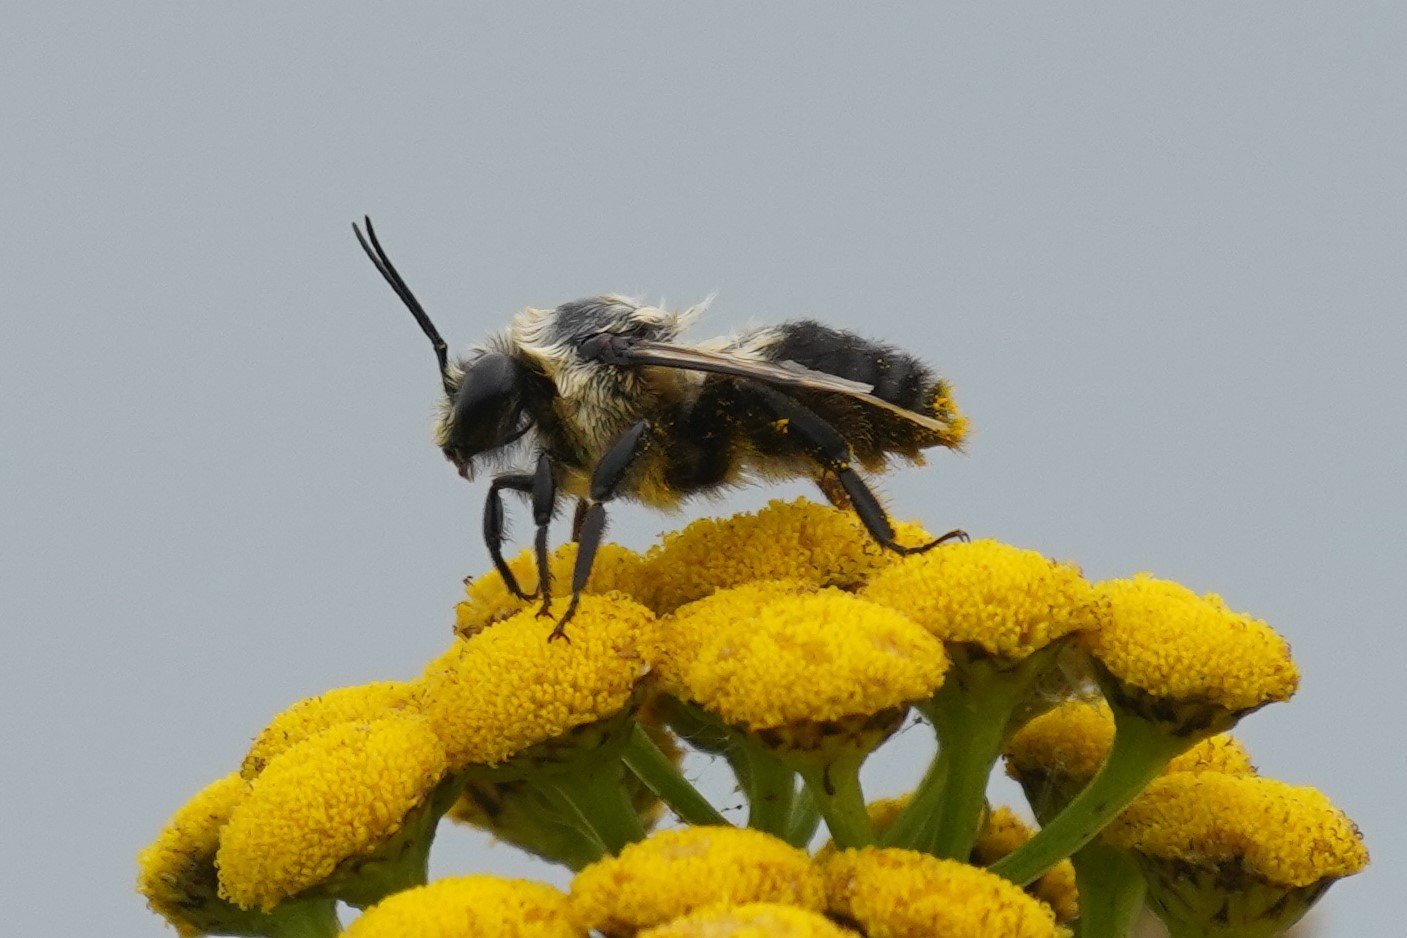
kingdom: Animalia
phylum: Arthropoda
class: Insecta
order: Hymenoptera
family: Apidae
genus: Bombus
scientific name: Bombus griseocollis
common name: Brown-belted bumble bee
